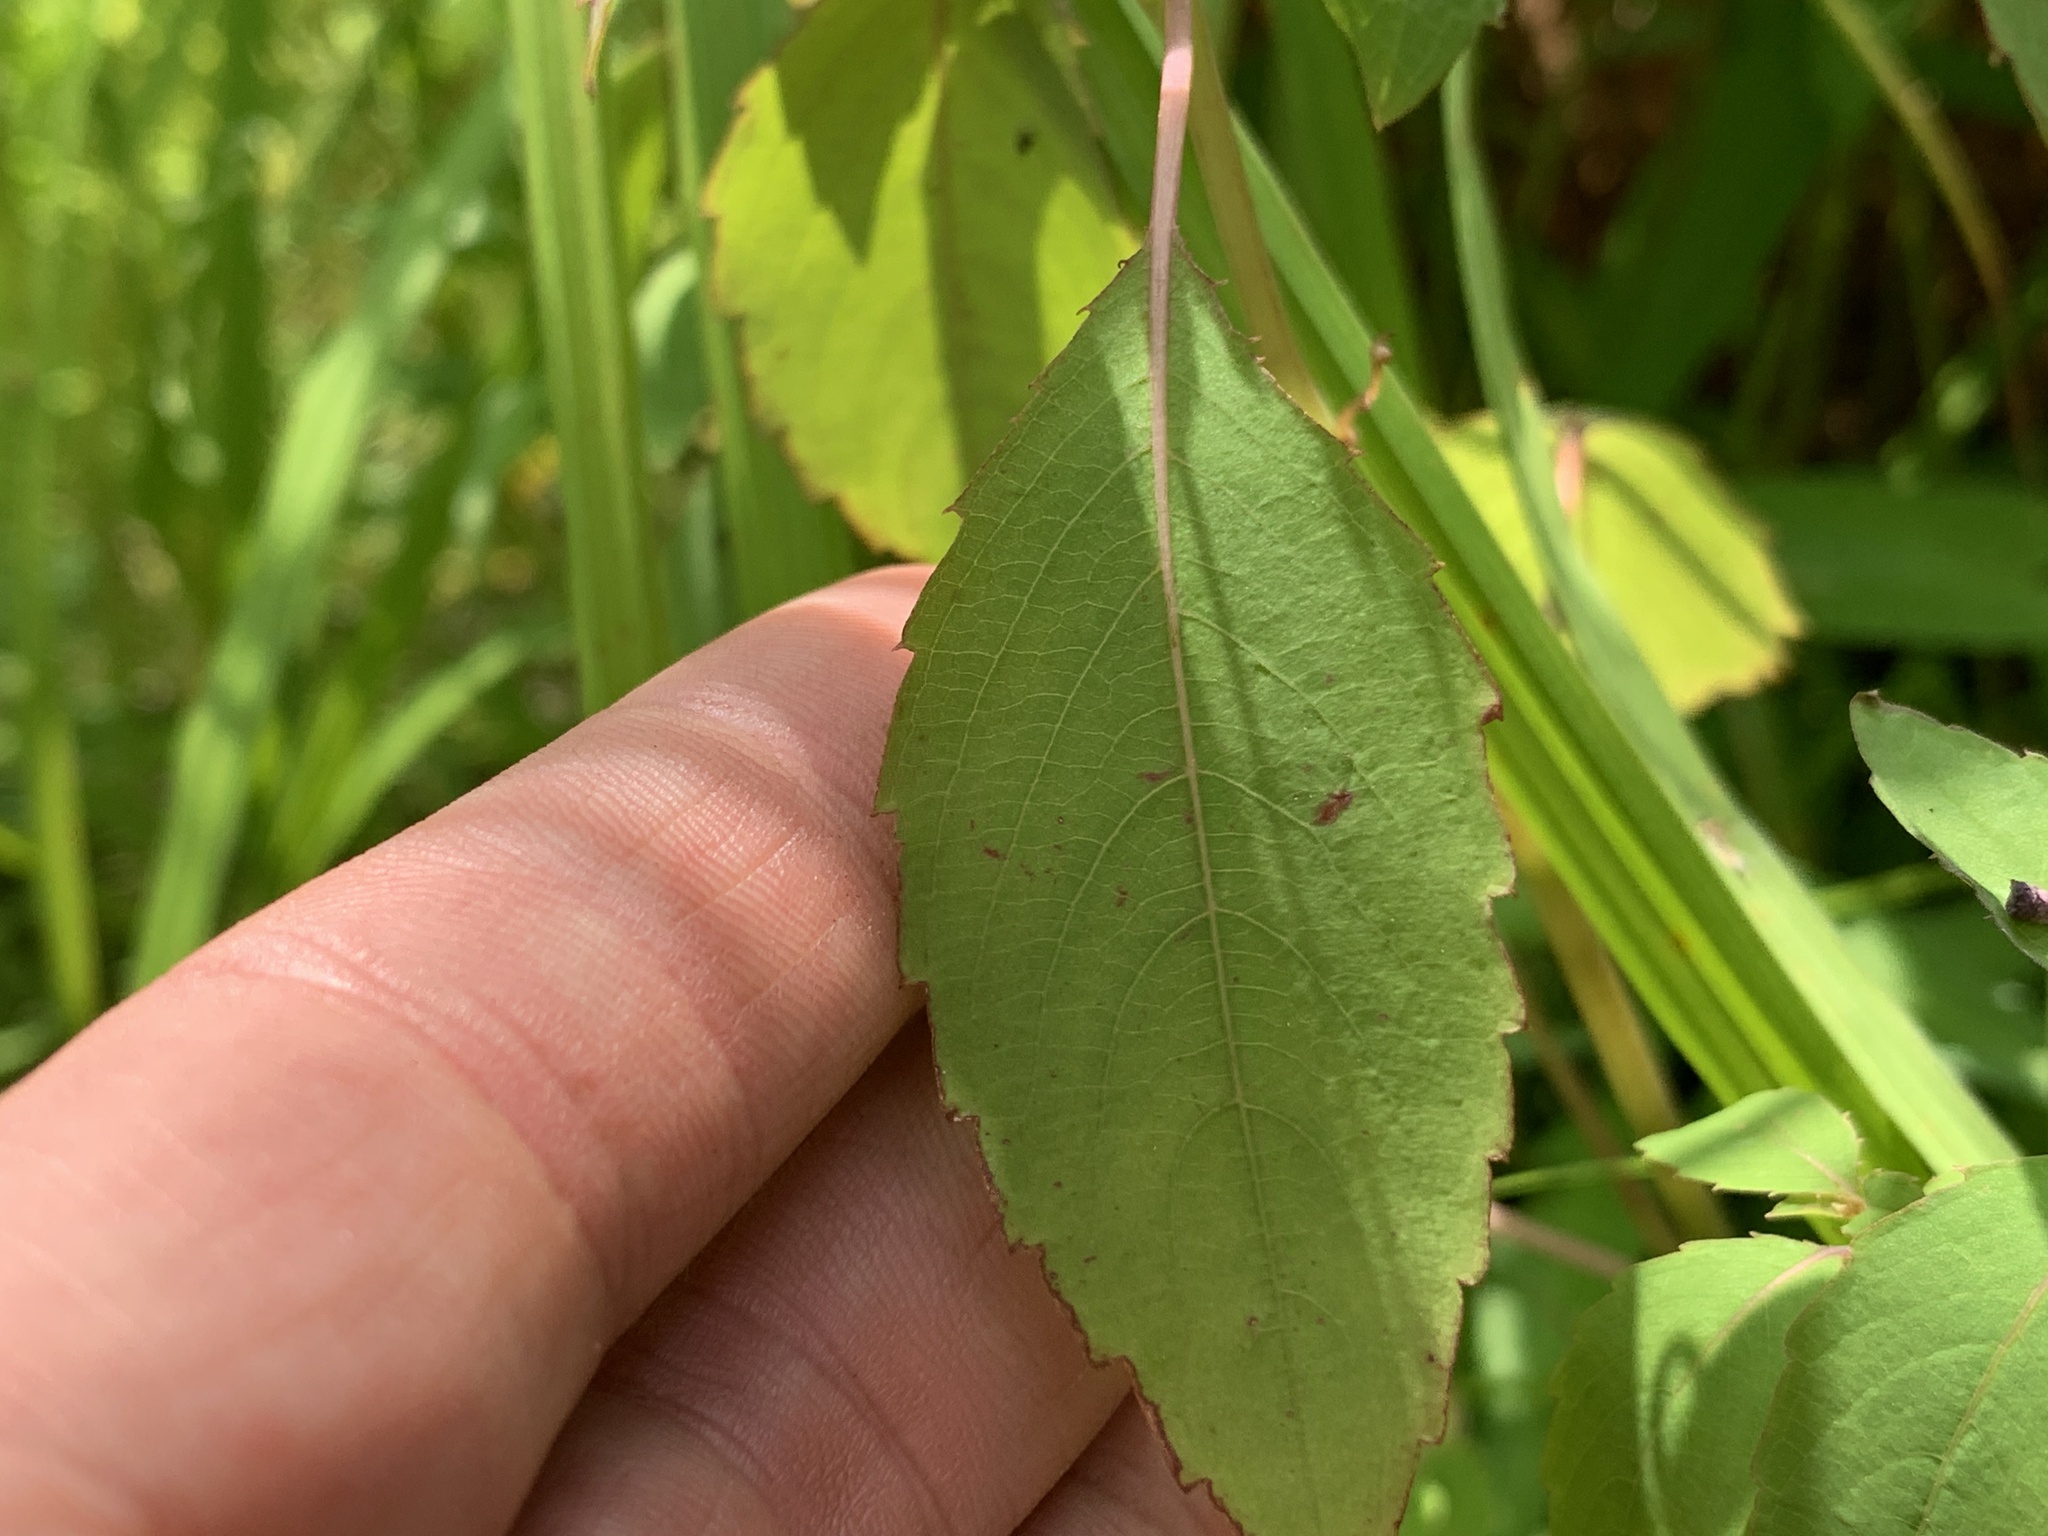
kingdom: Plantae
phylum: Tracheophyta
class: Magnoliopsida
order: Ericales
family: Balsaminaceae
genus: Impatiens
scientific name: Impatiens capensis
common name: Orange balsam
